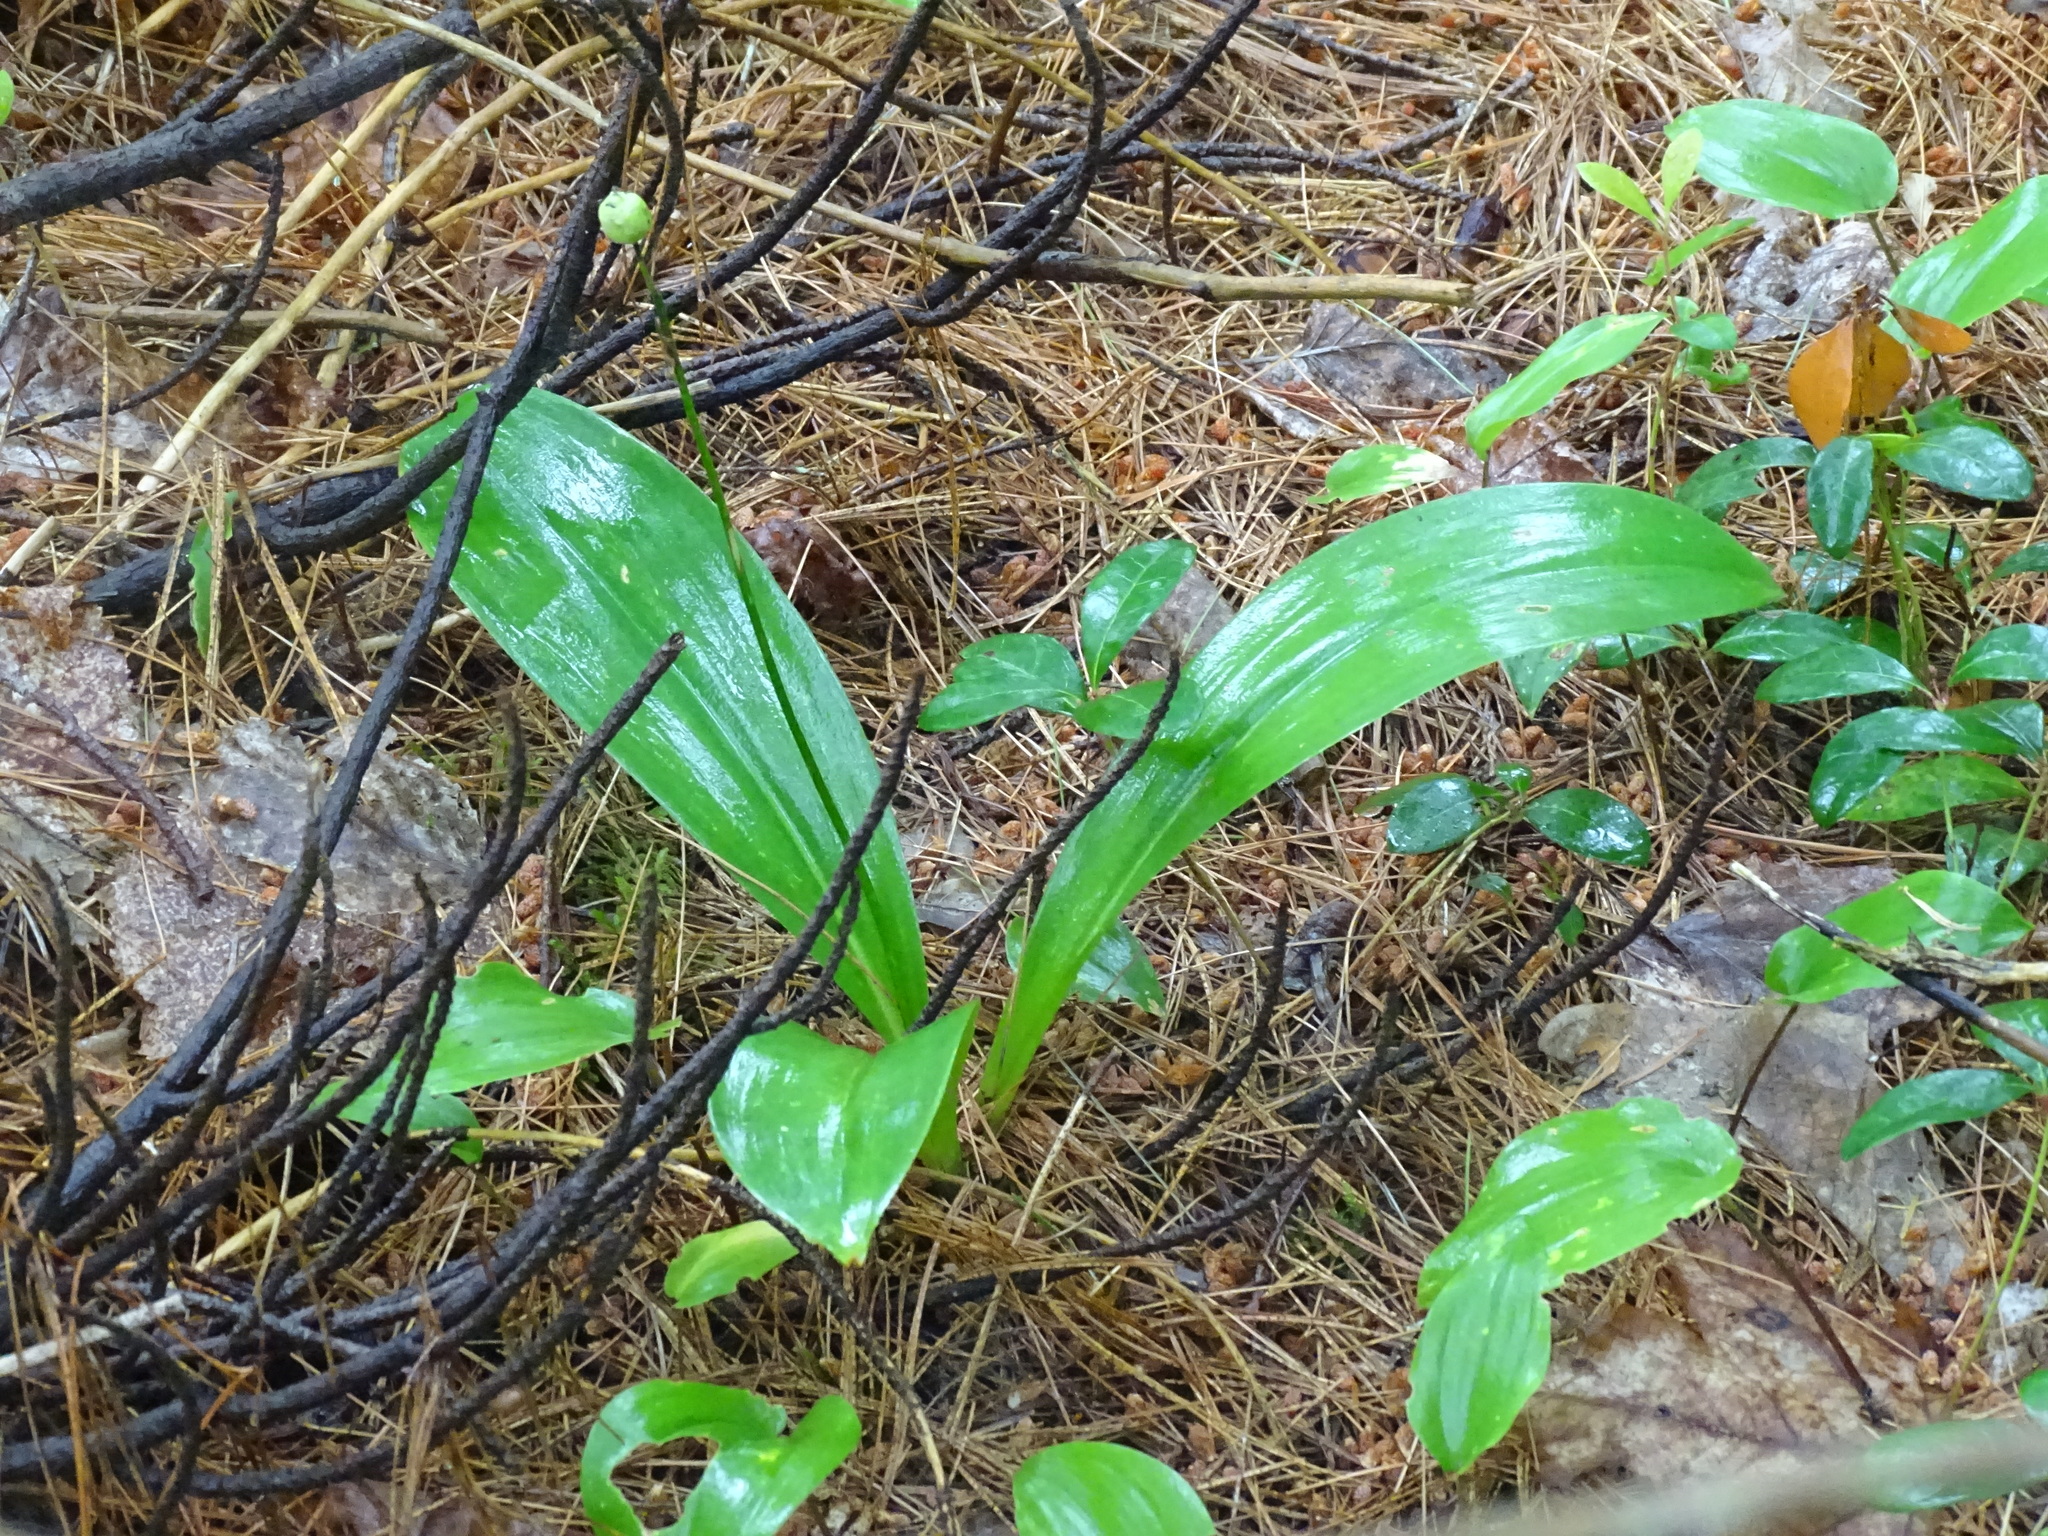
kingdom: Plantae
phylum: Tracheophyta
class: Liliopsida
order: Liliales
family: Liliaceae
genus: Clintonia
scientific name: Clintonia borealis
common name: Yellow clintonia
